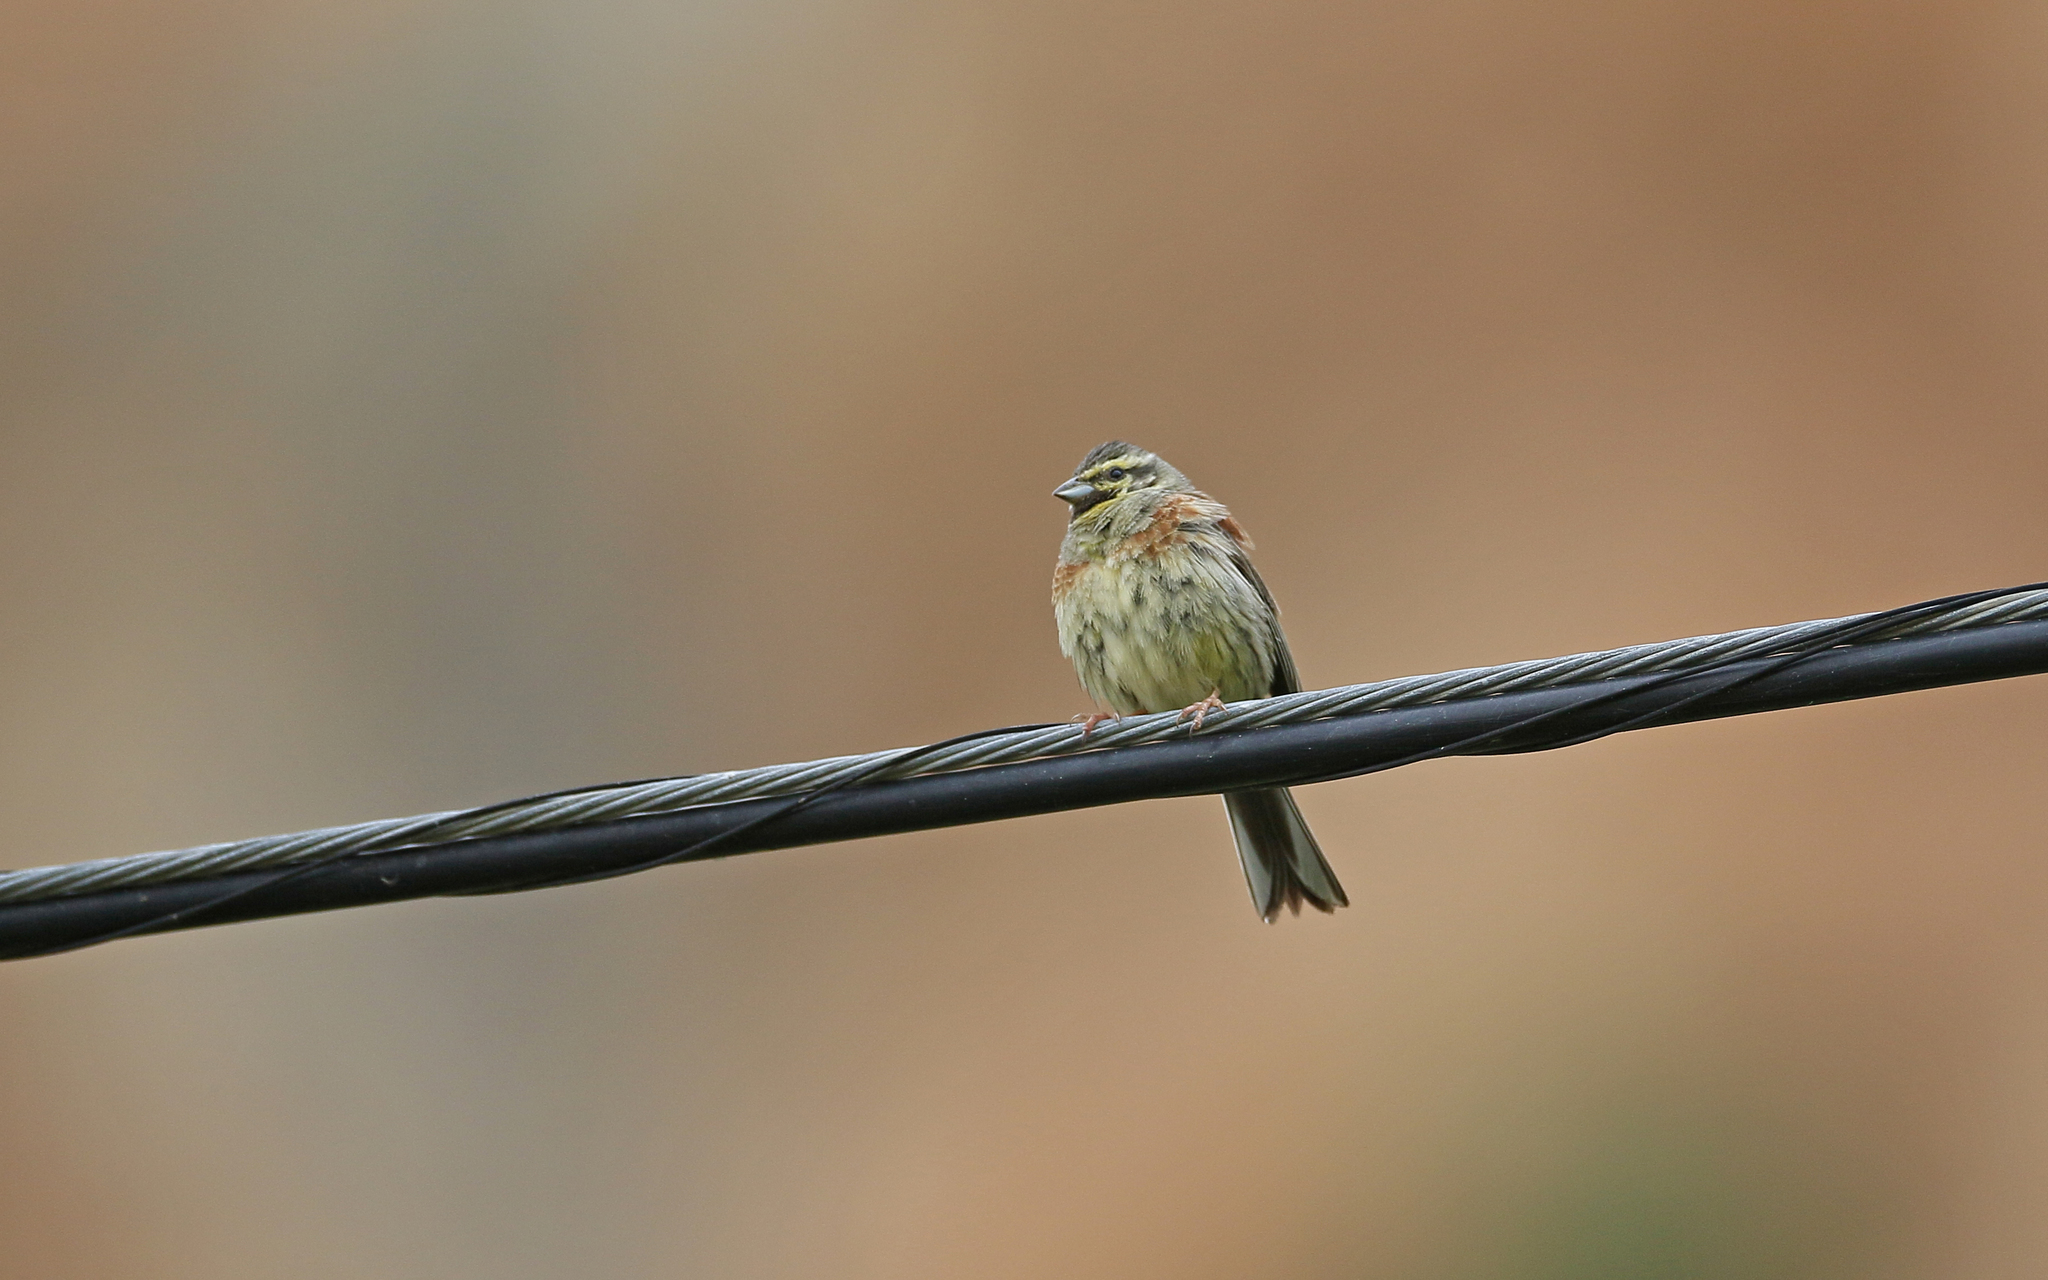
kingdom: Animalia
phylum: Chordata
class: Aves
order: Passeriformes
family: Emberizidae
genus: Emberiza
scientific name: Emberiza cirlus
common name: Cirl bunting
